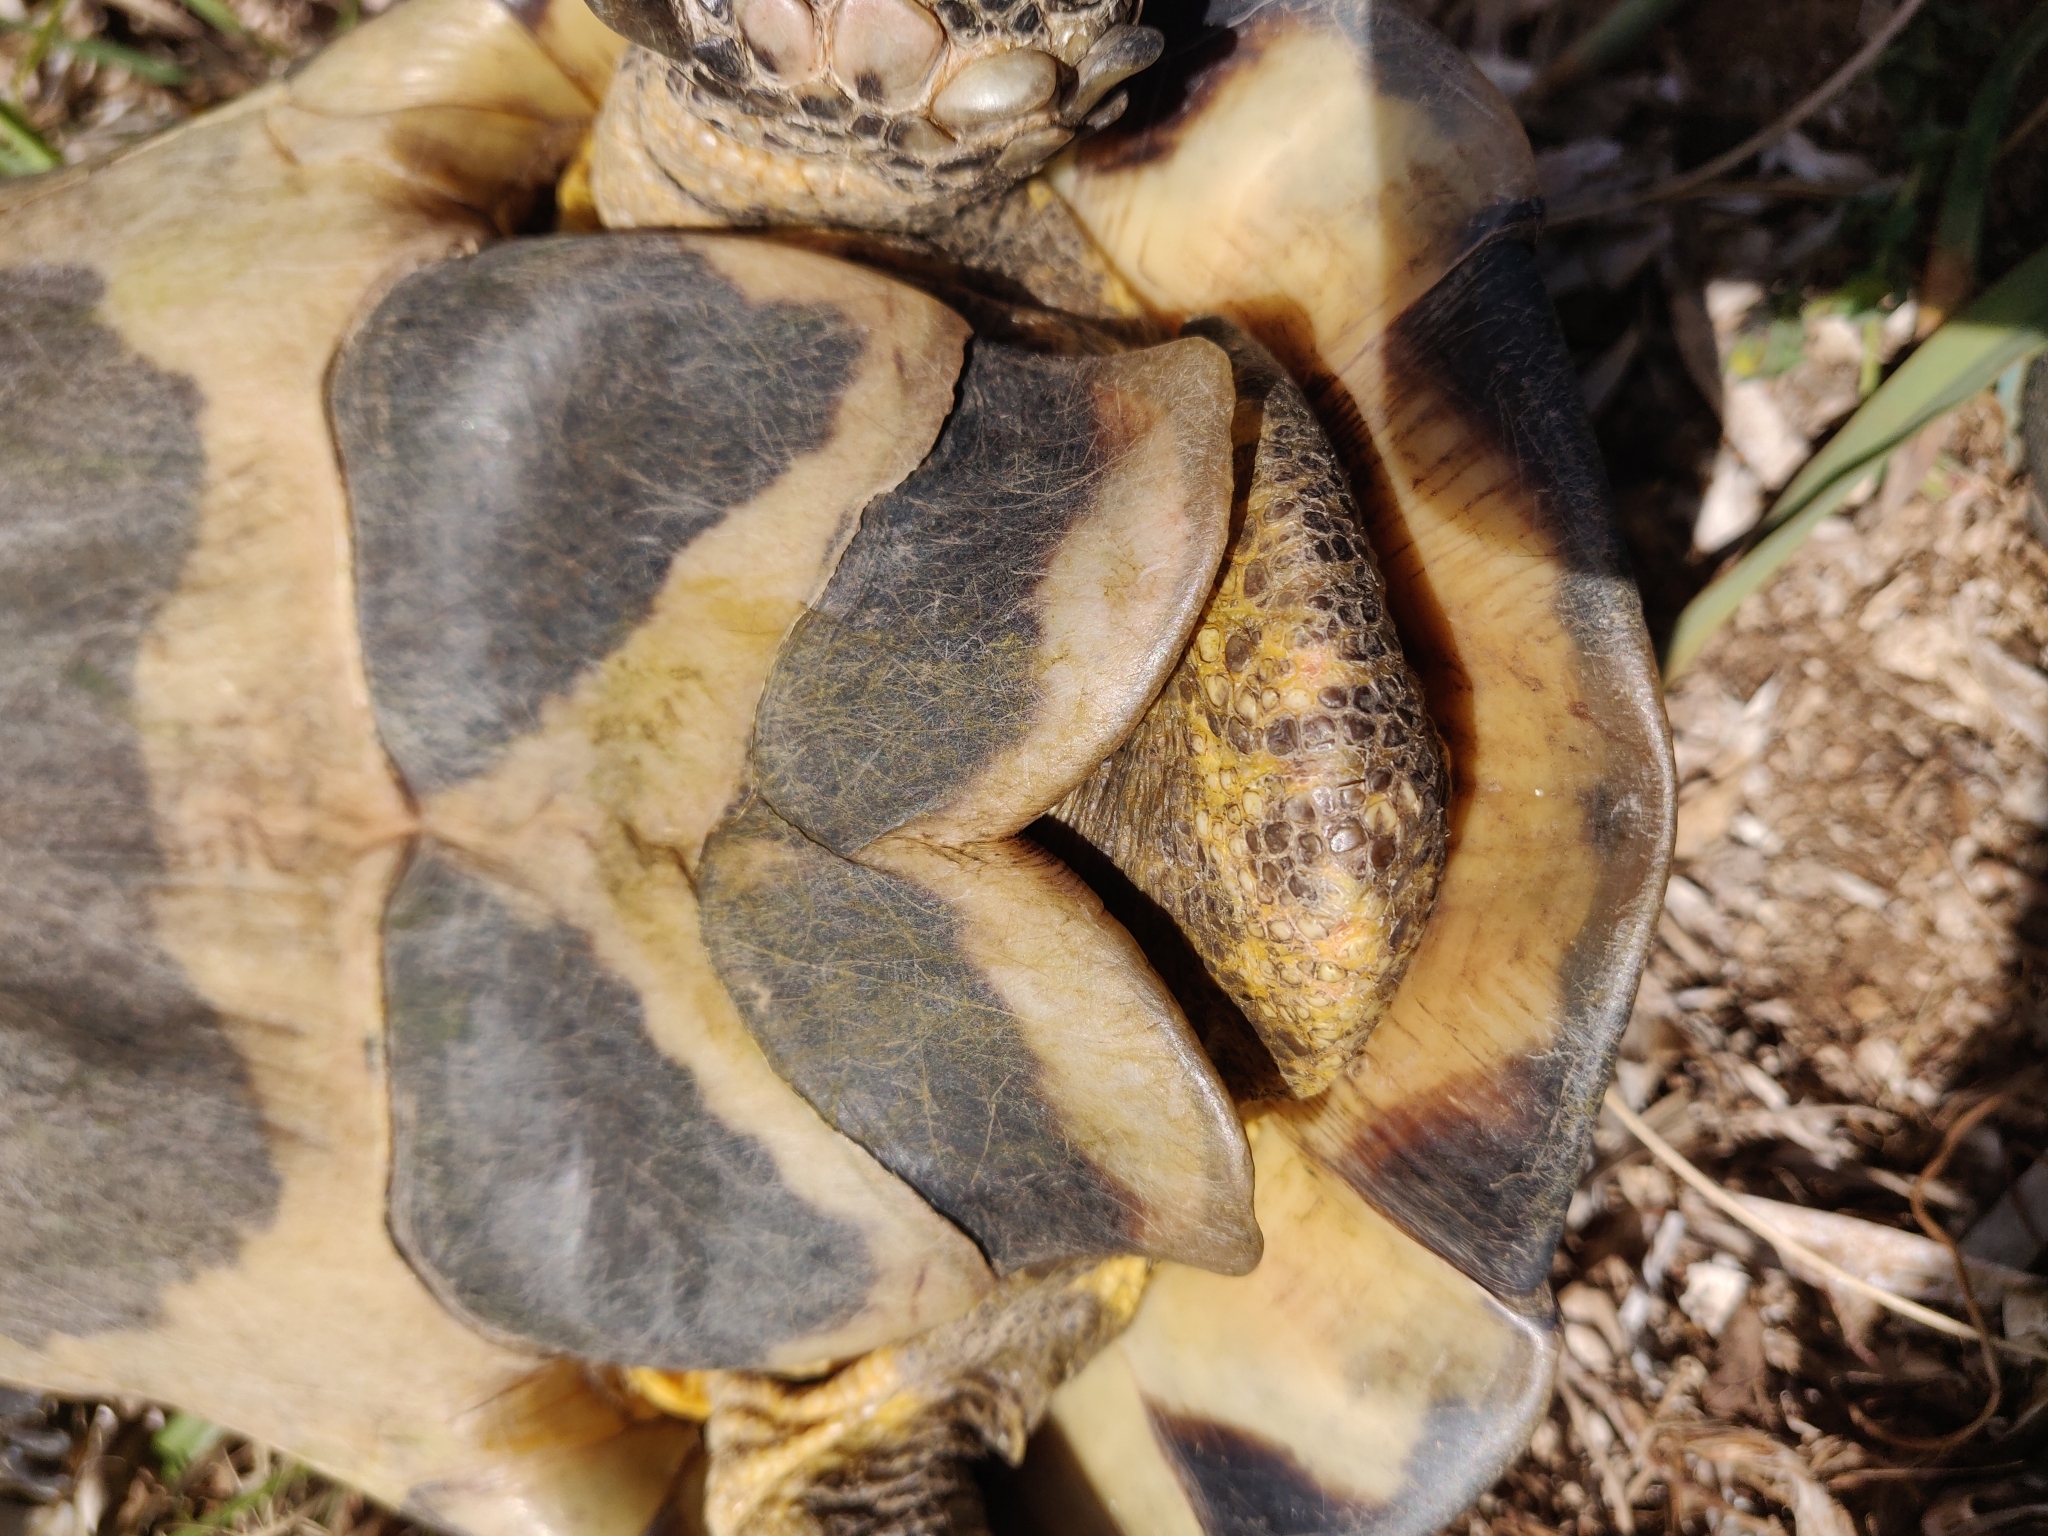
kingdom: Animalia
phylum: Chordata
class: Testudines
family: Testudinidae
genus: Testudo
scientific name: Testudo marginata
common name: Marginated tortoise
